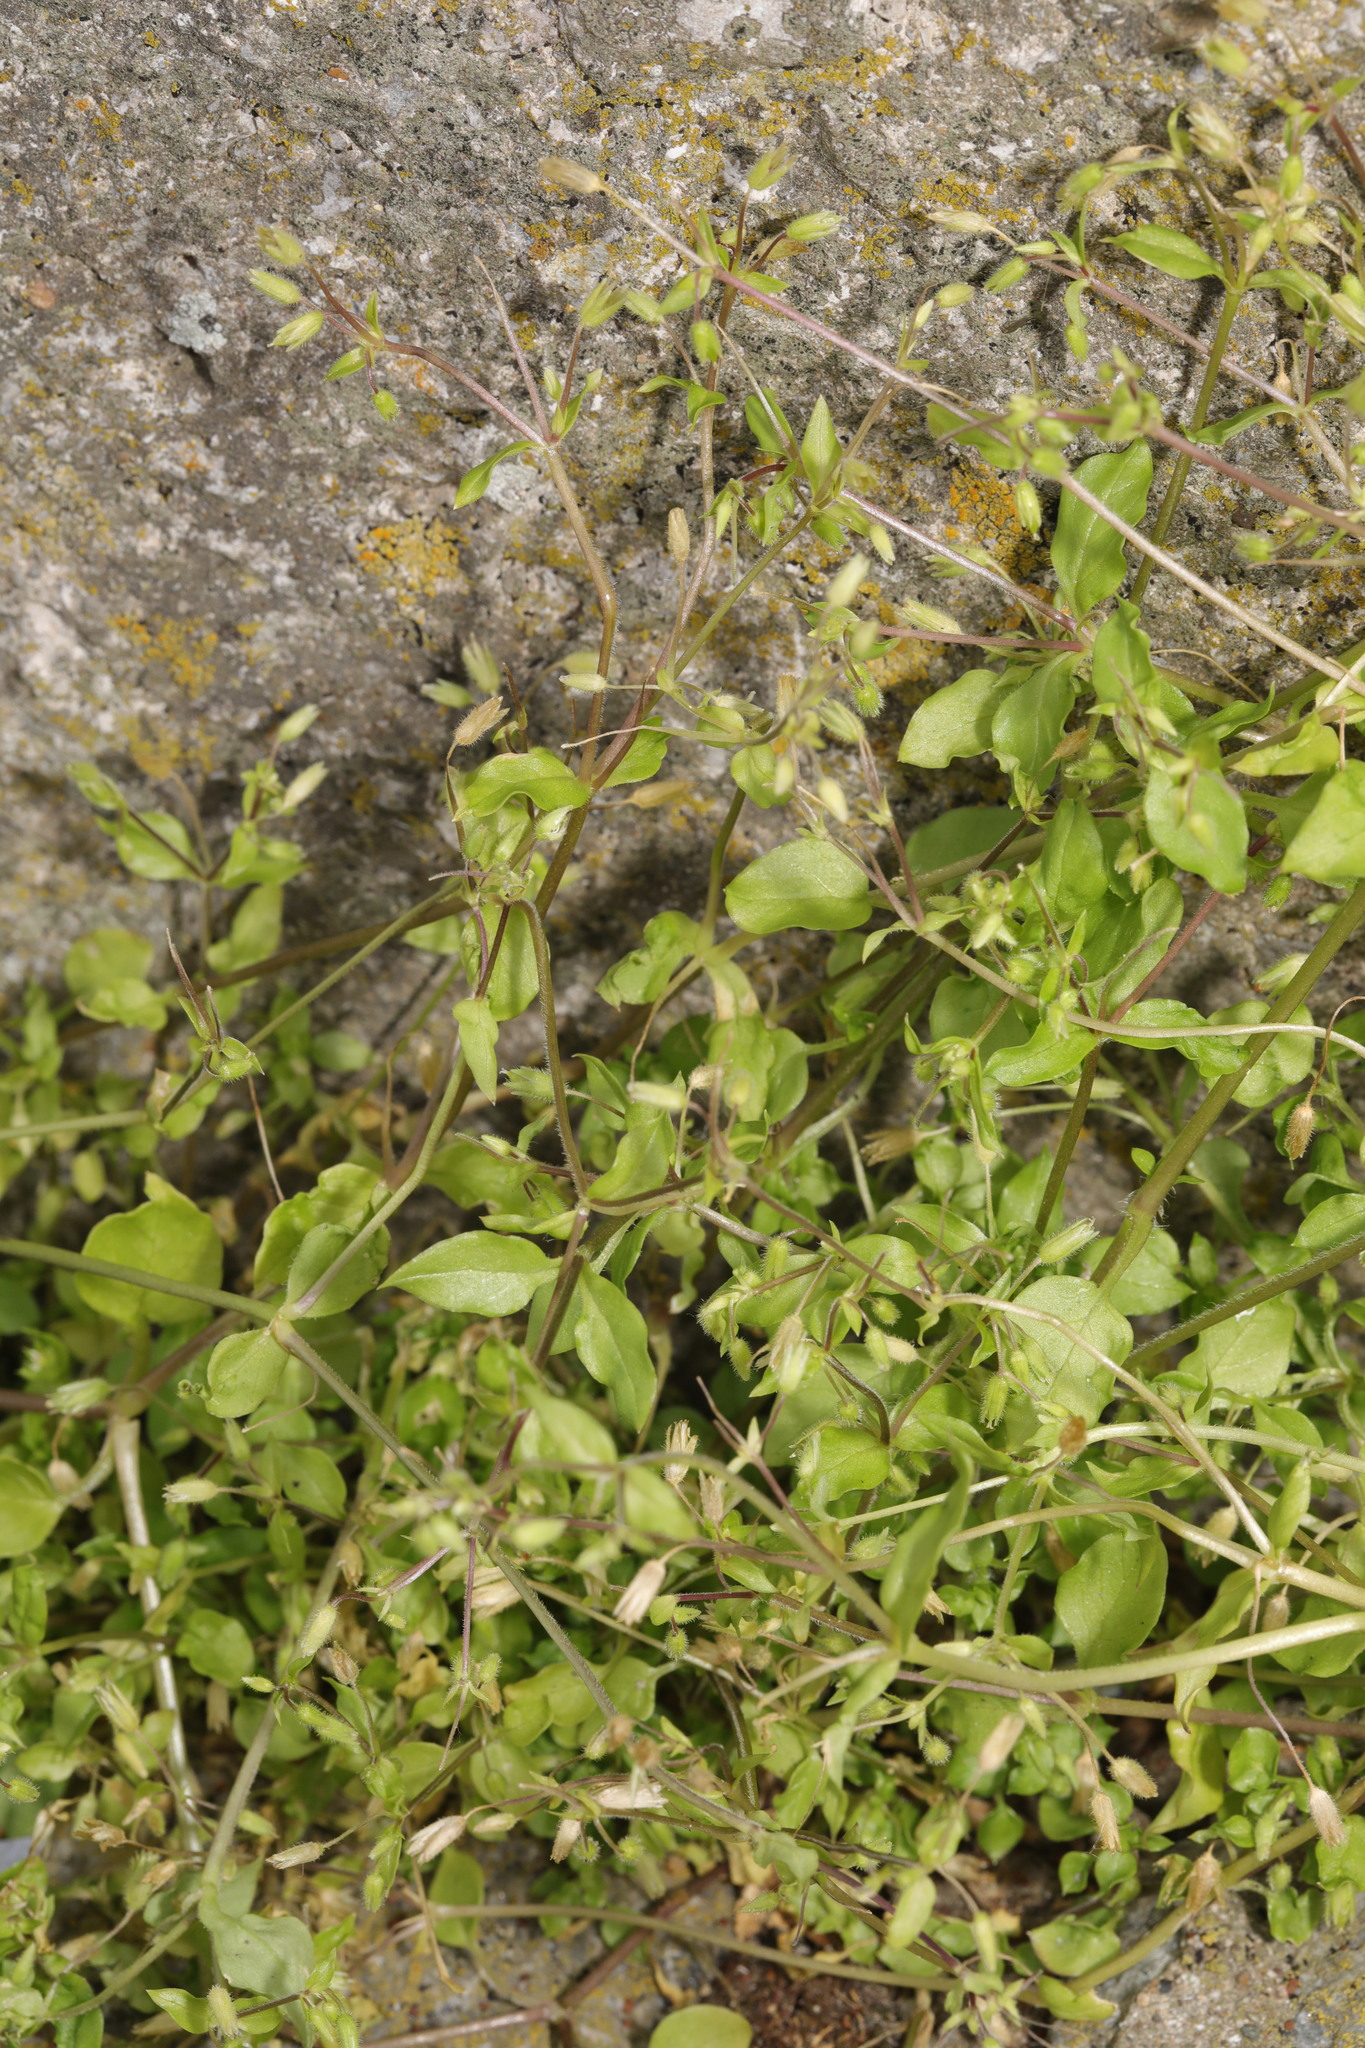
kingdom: Plantae
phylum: Tracheophyta
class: Magnoliopsida
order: Caryophyllales
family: Caryophyllaceae
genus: Stellaria
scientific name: Stellaria media
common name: Common chickweed
